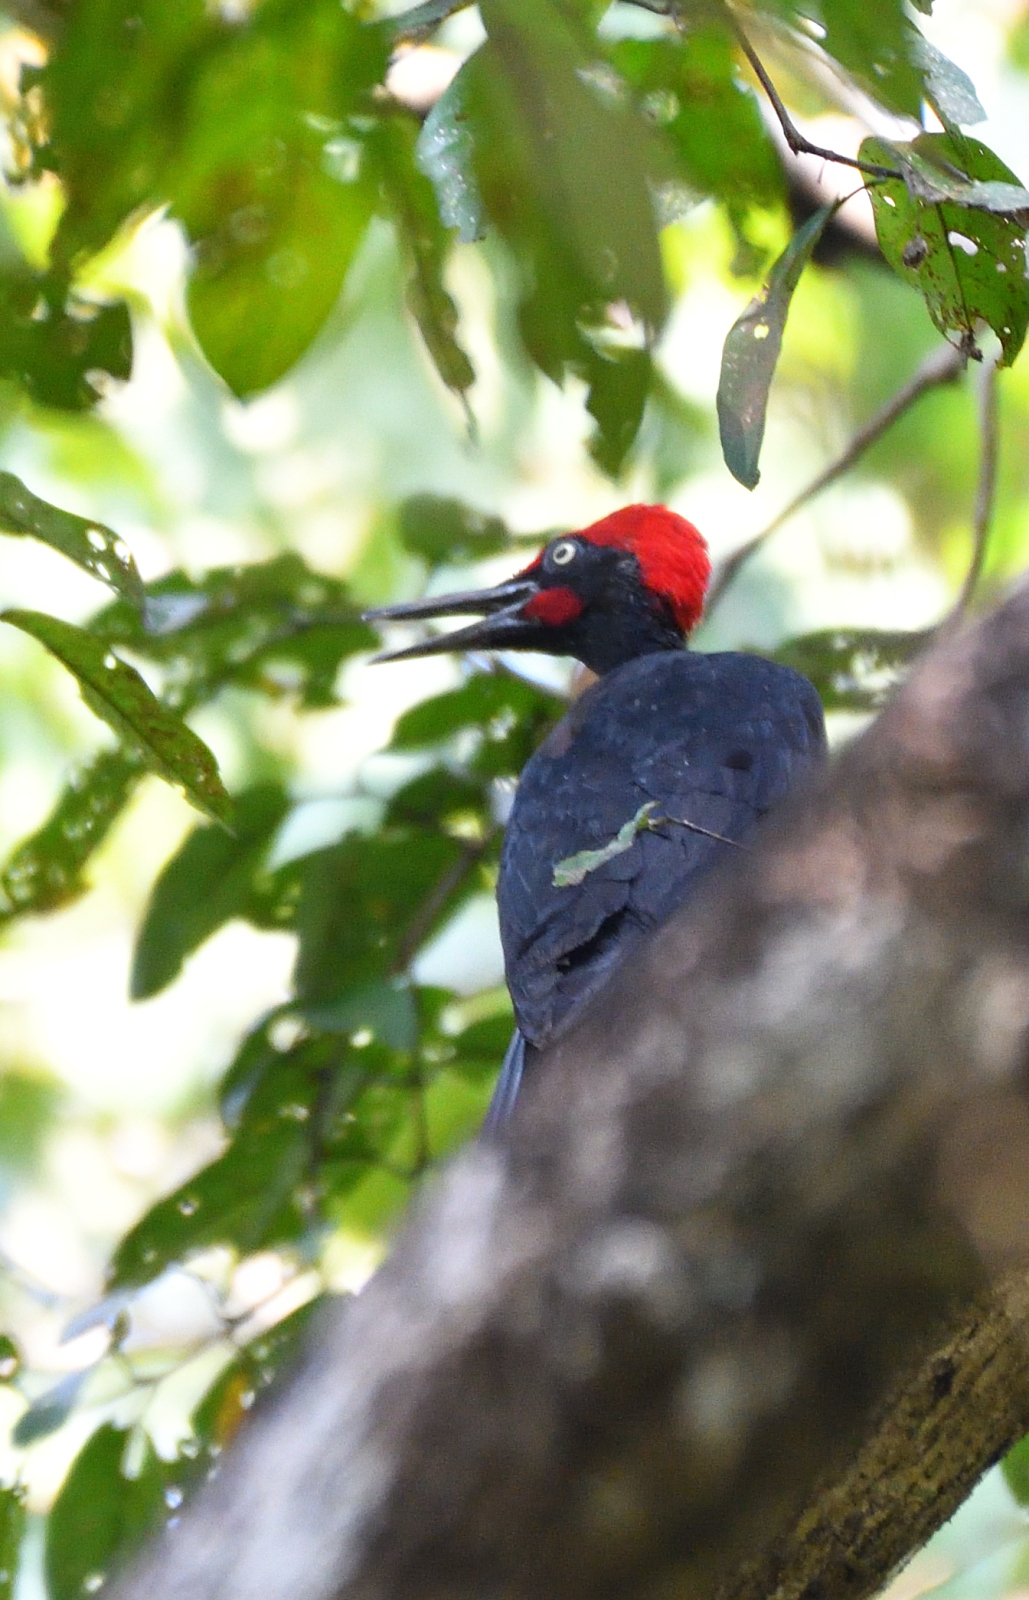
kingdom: Animalia
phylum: Chordata
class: Aves
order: Piciformes
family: Picidae
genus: Dryocopus
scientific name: Dryocopus javensis
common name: White-bellied woodpecker
